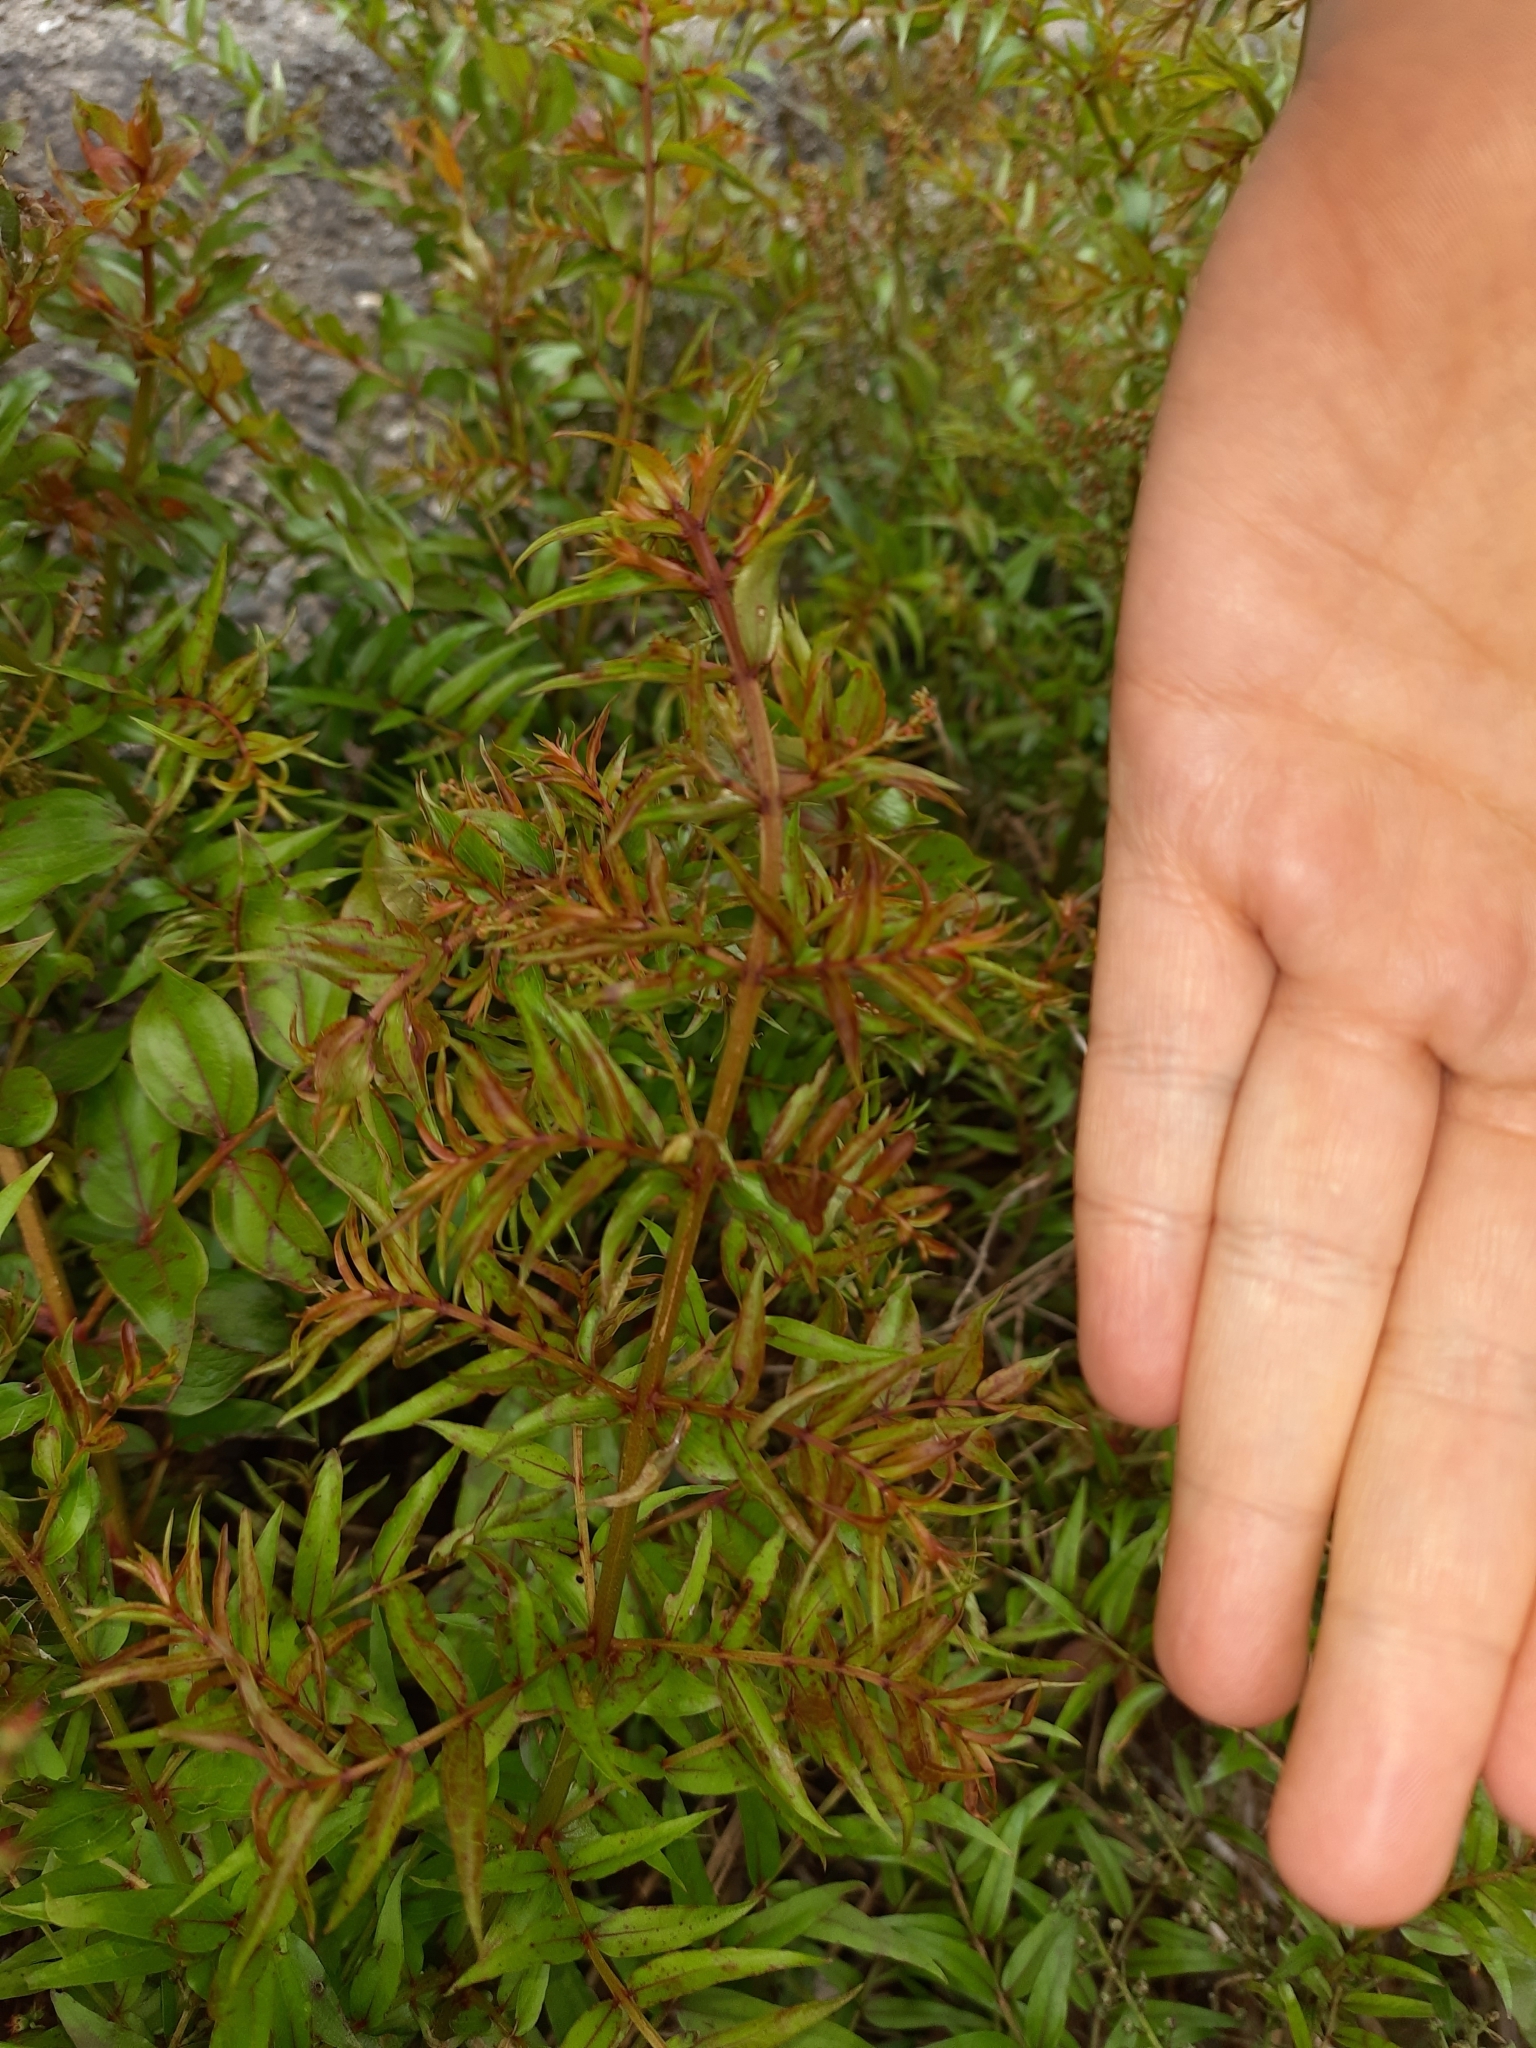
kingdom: Plantae
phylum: Tracheophyta
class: Magnoliopsida
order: Cucurbitales
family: Coriariaceae
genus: Coriaria
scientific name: Coriaria angustissima
